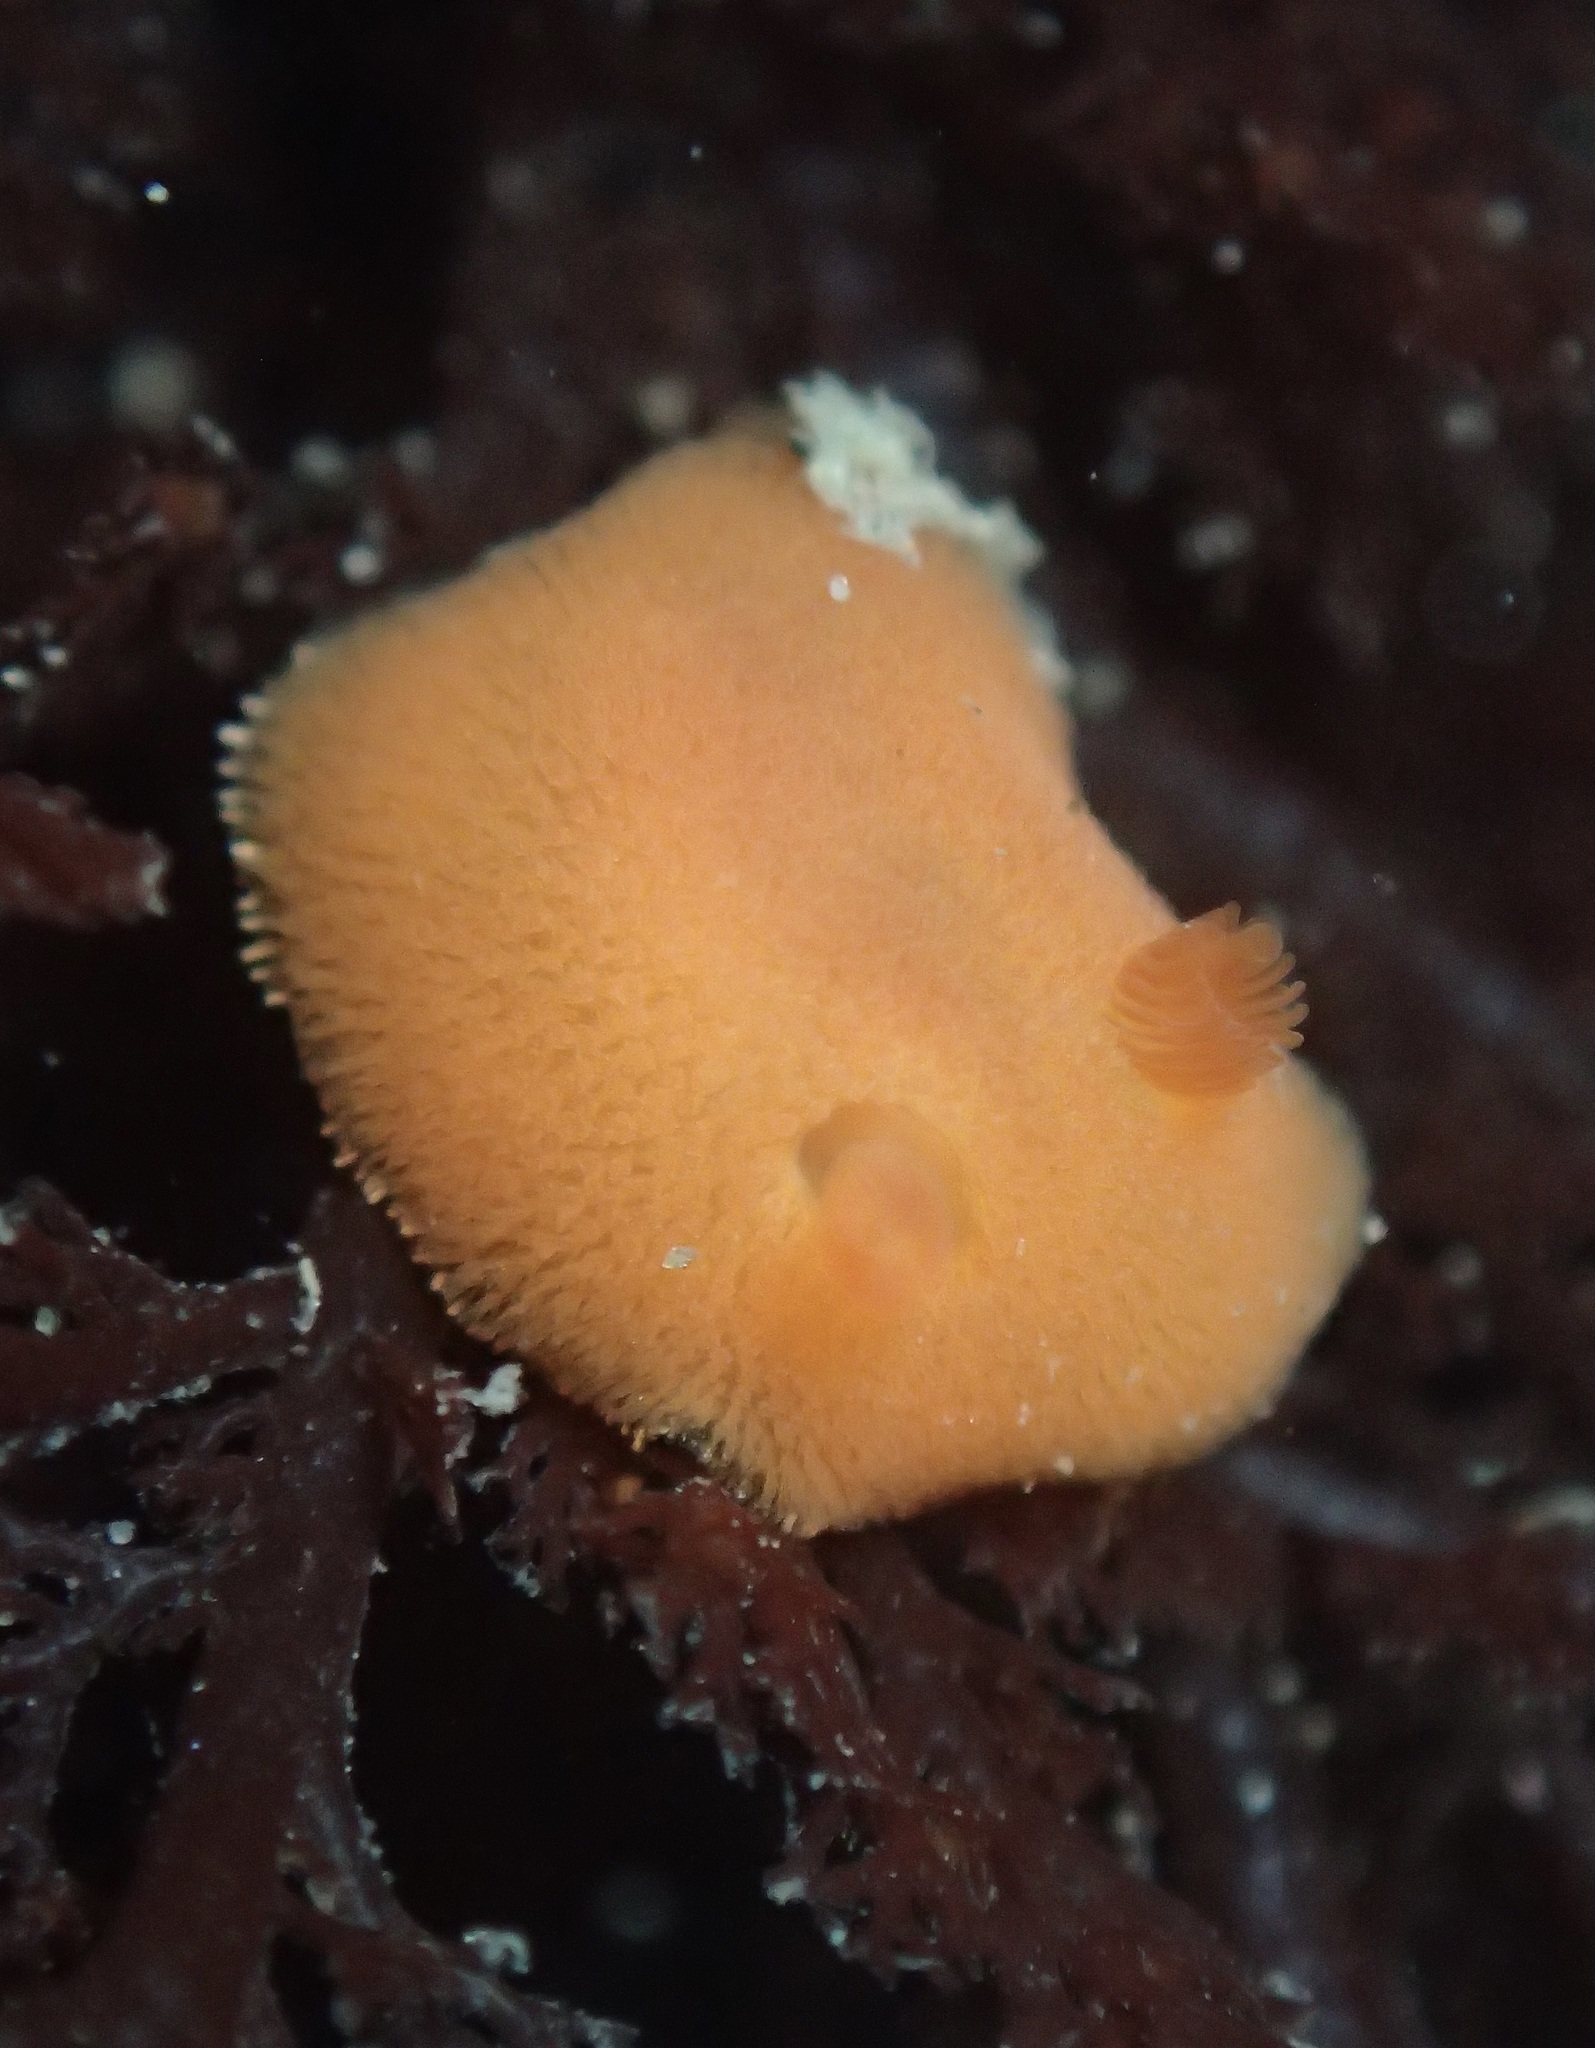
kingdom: Animalia
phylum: Mollusca
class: Gastropoda
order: Nudibranchia
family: Discodorididae
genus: Rostanga
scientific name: Rostanga pulchra
